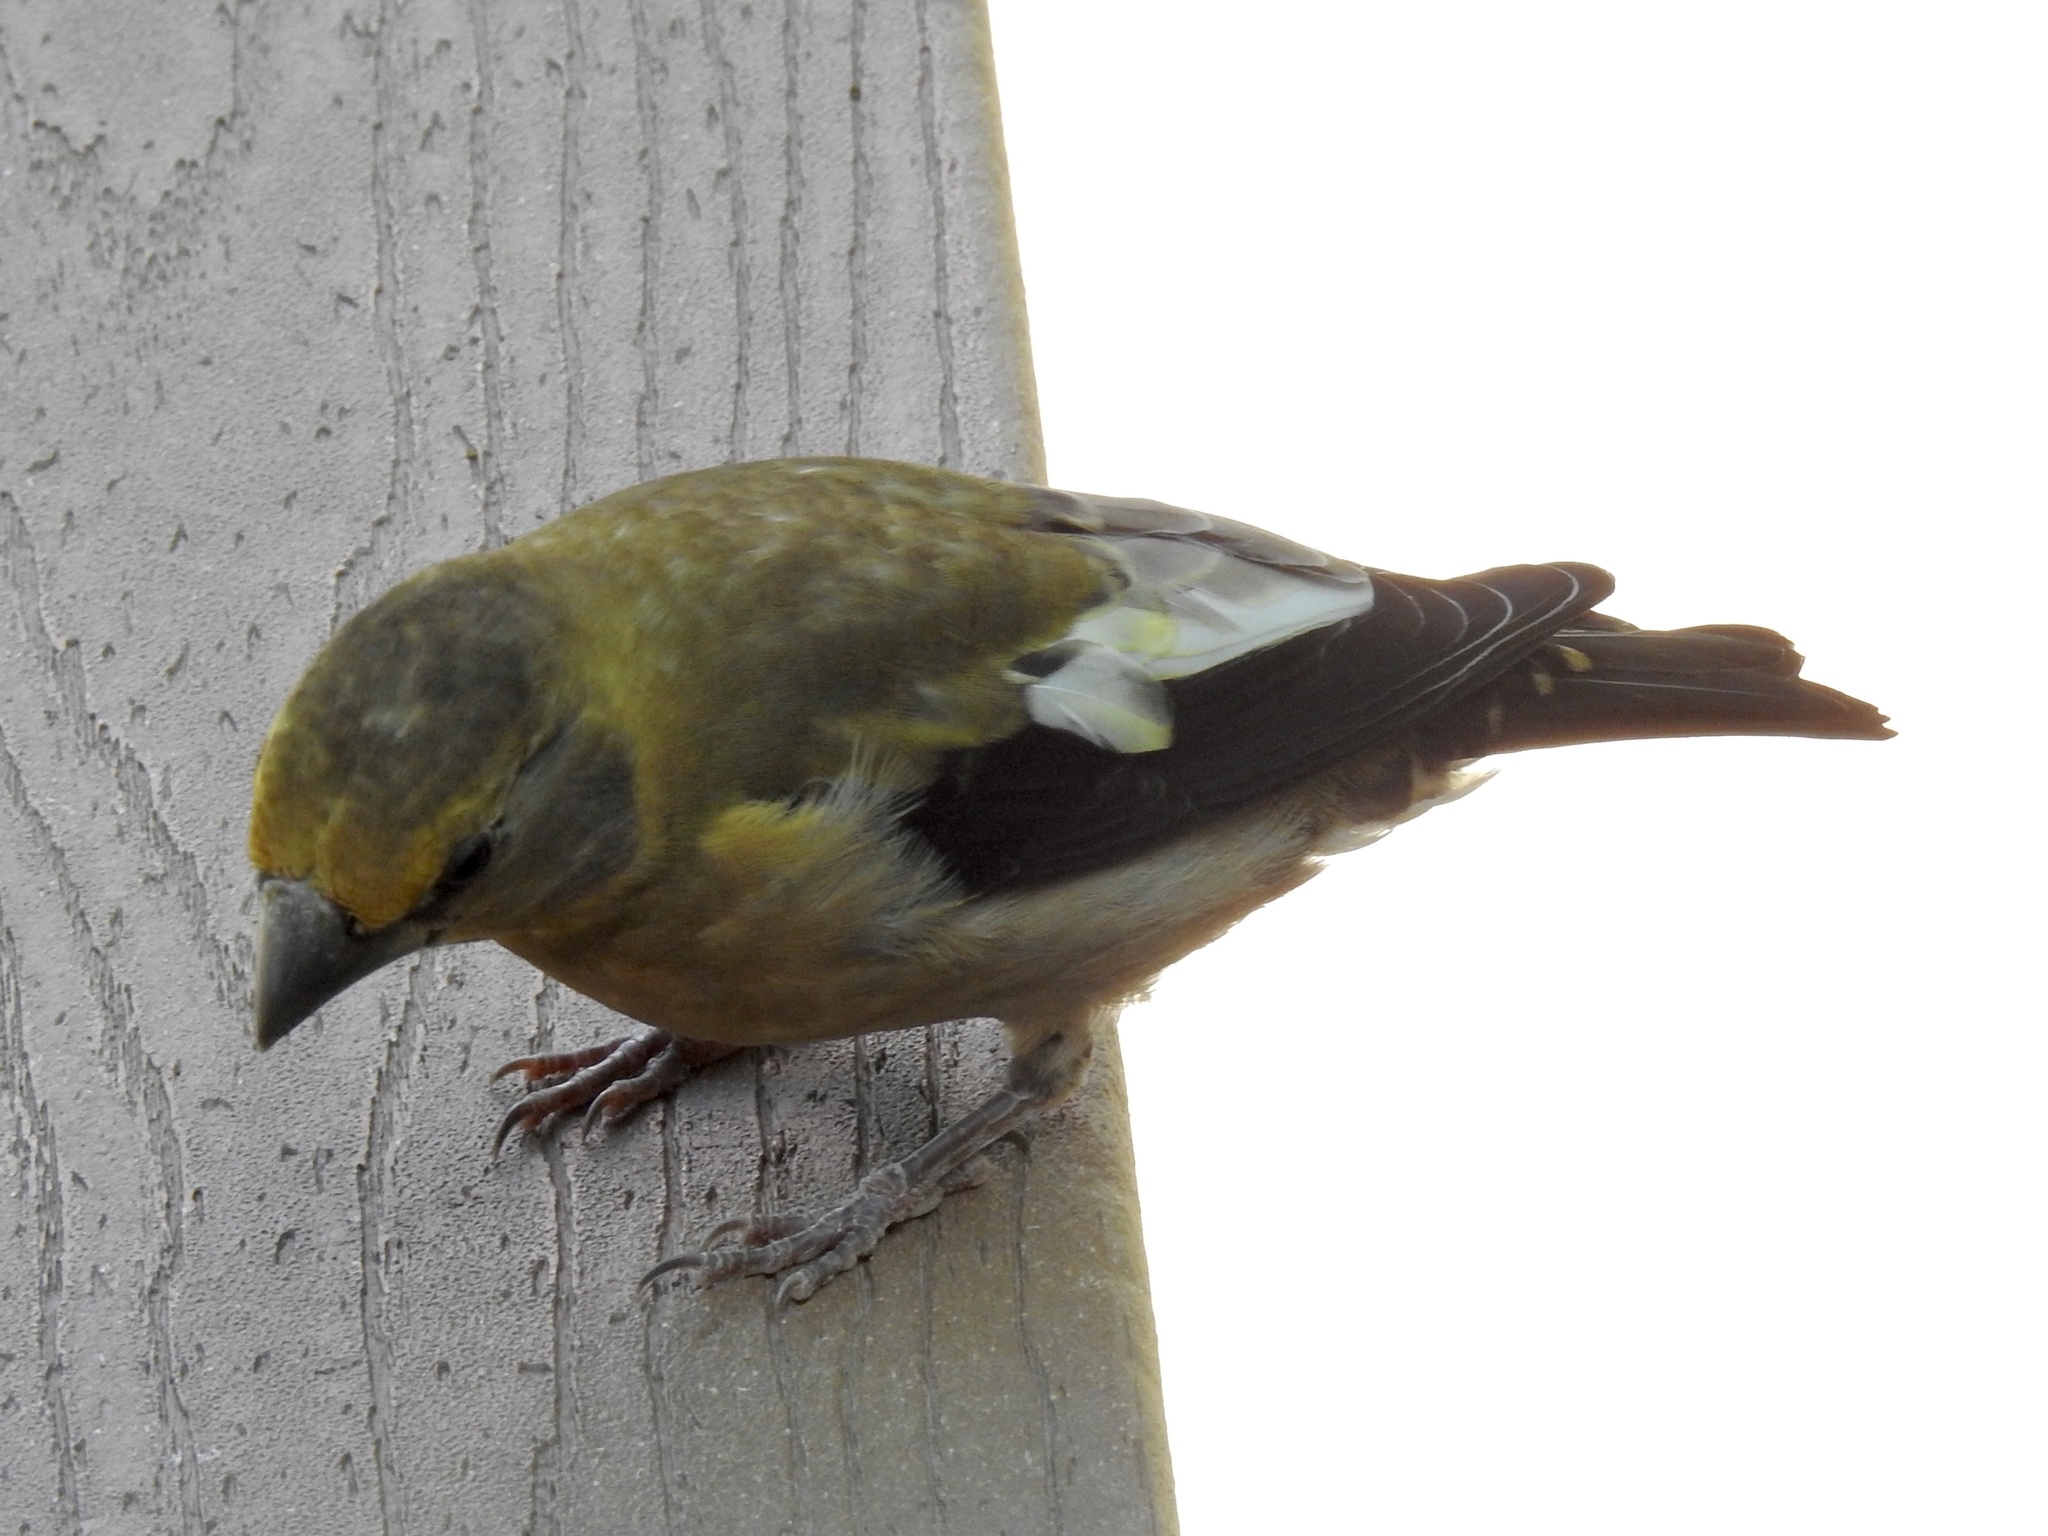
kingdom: Animalia
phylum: Chordata
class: Aves
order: Passeriformes
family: Fringillidae
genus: Hesperiphona
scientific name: Hesperiphona vespertina
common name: Evening grosbeak
